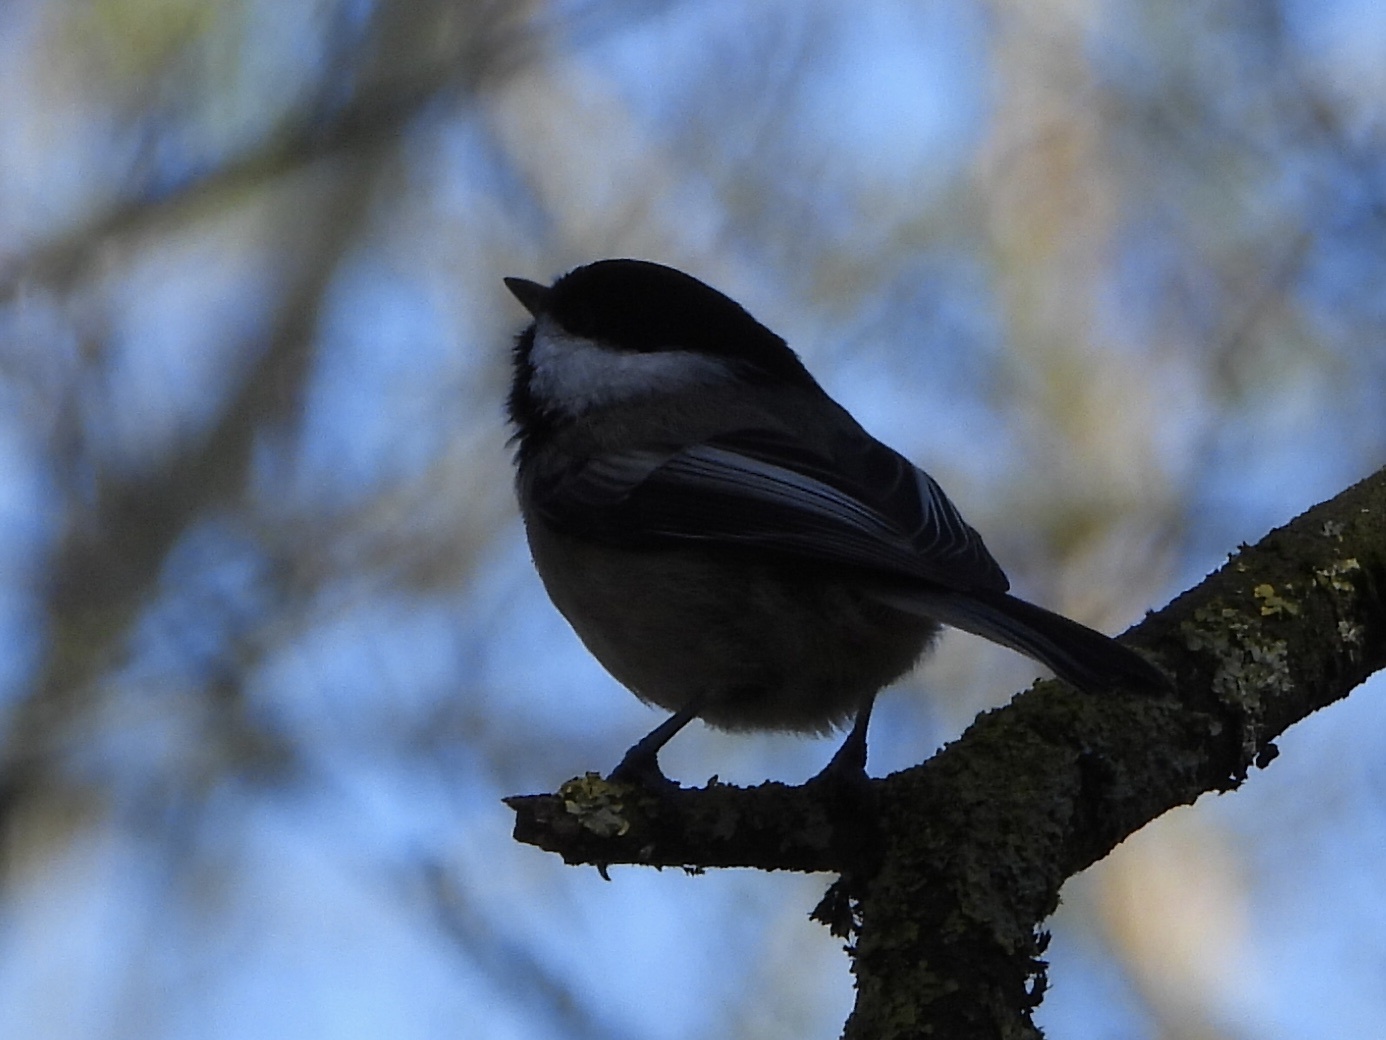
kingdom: Animalia
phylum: Chordata
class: Aves
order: Passeriformes
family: Paridae
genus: Poecile
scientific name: Poecile atricapillus
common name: Black-capped chickadee
